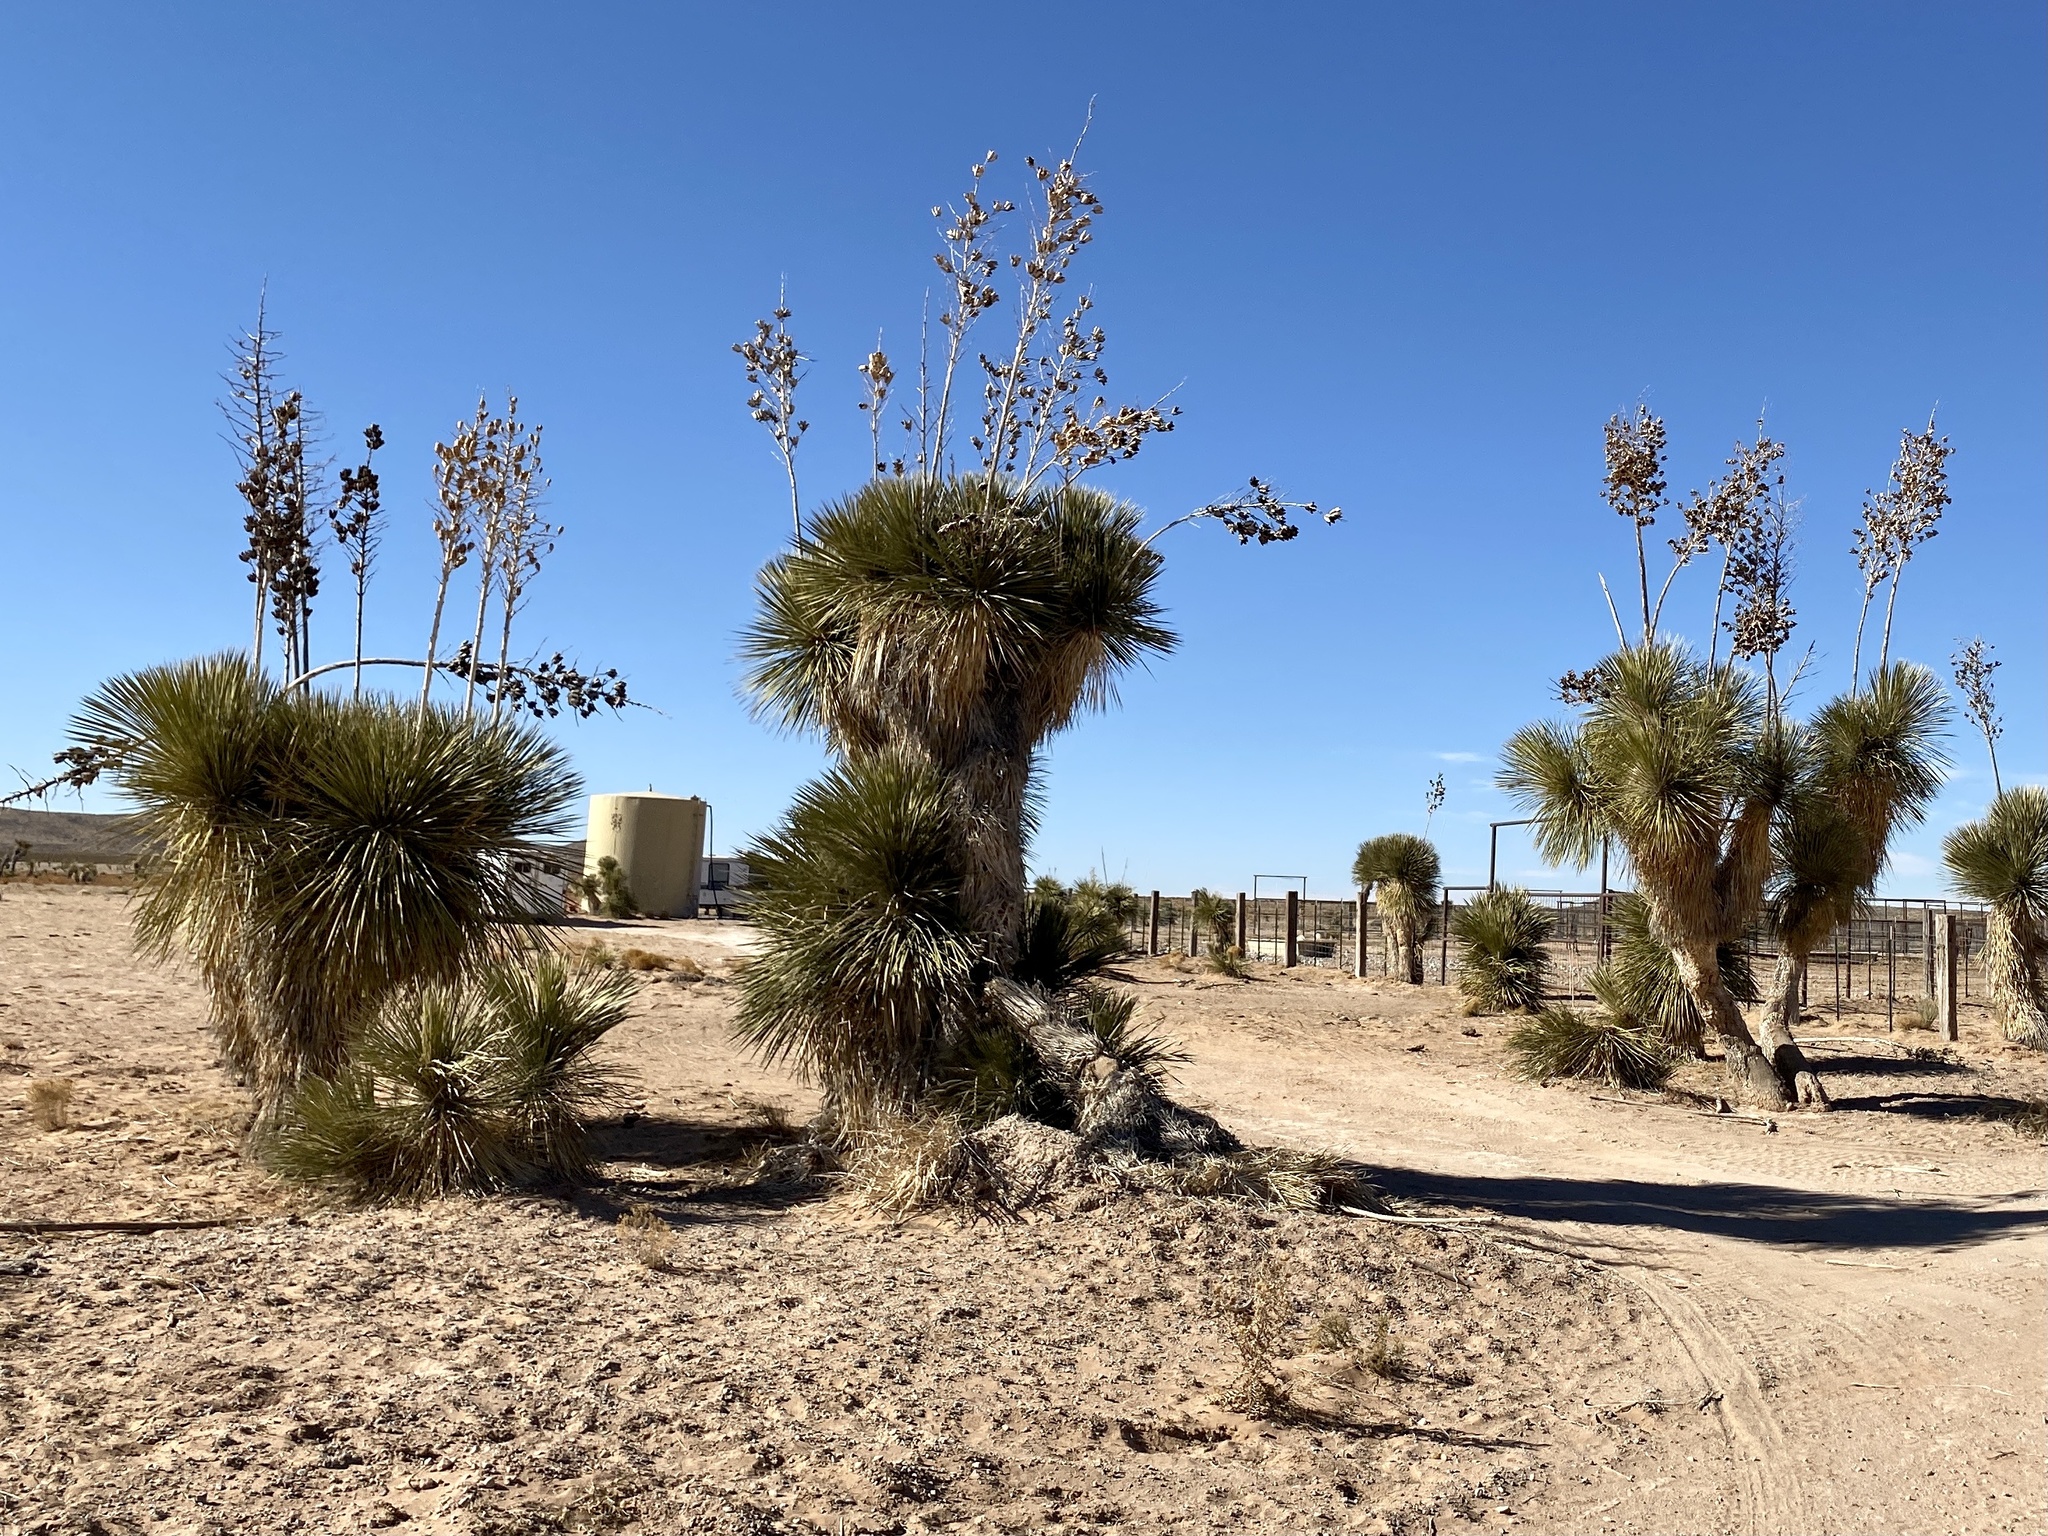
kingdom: Plantae
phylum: Tracheophyta
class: Liliopsida
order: Asparagales
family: Asparagaceae
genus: Yucca
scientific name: Yucca elata
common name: Palmella
